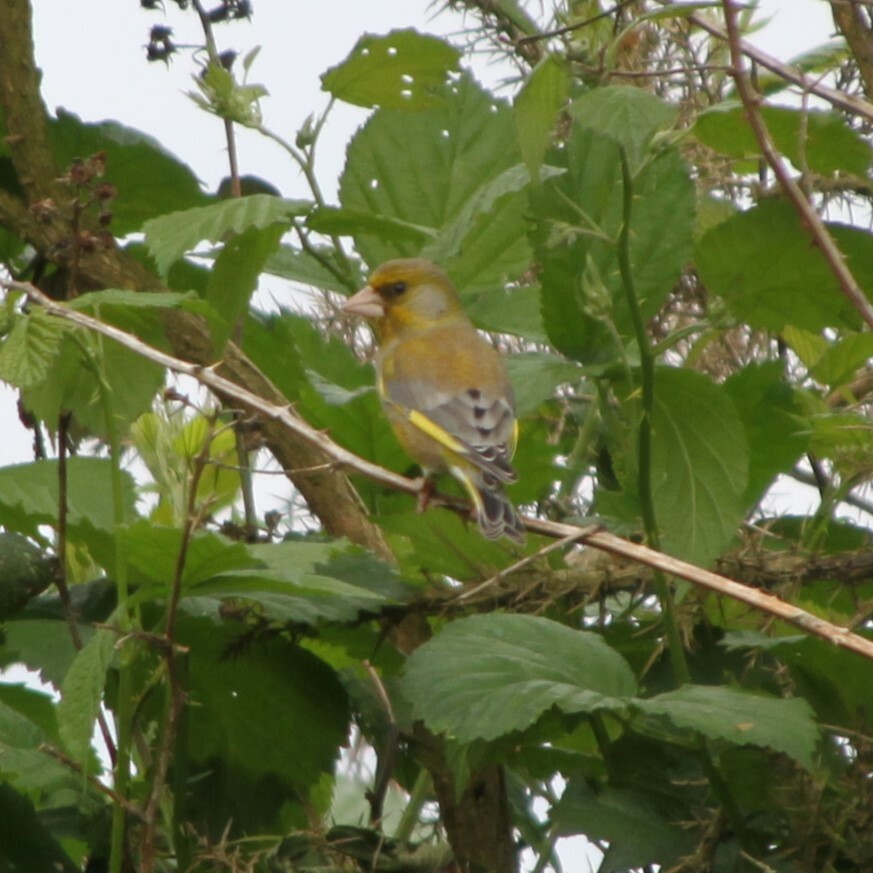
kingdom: Plantae
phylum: Tracheophyta
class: Liliopsida
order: Poales
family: Poaceae
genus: Chloris
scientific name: Chloris chloris
